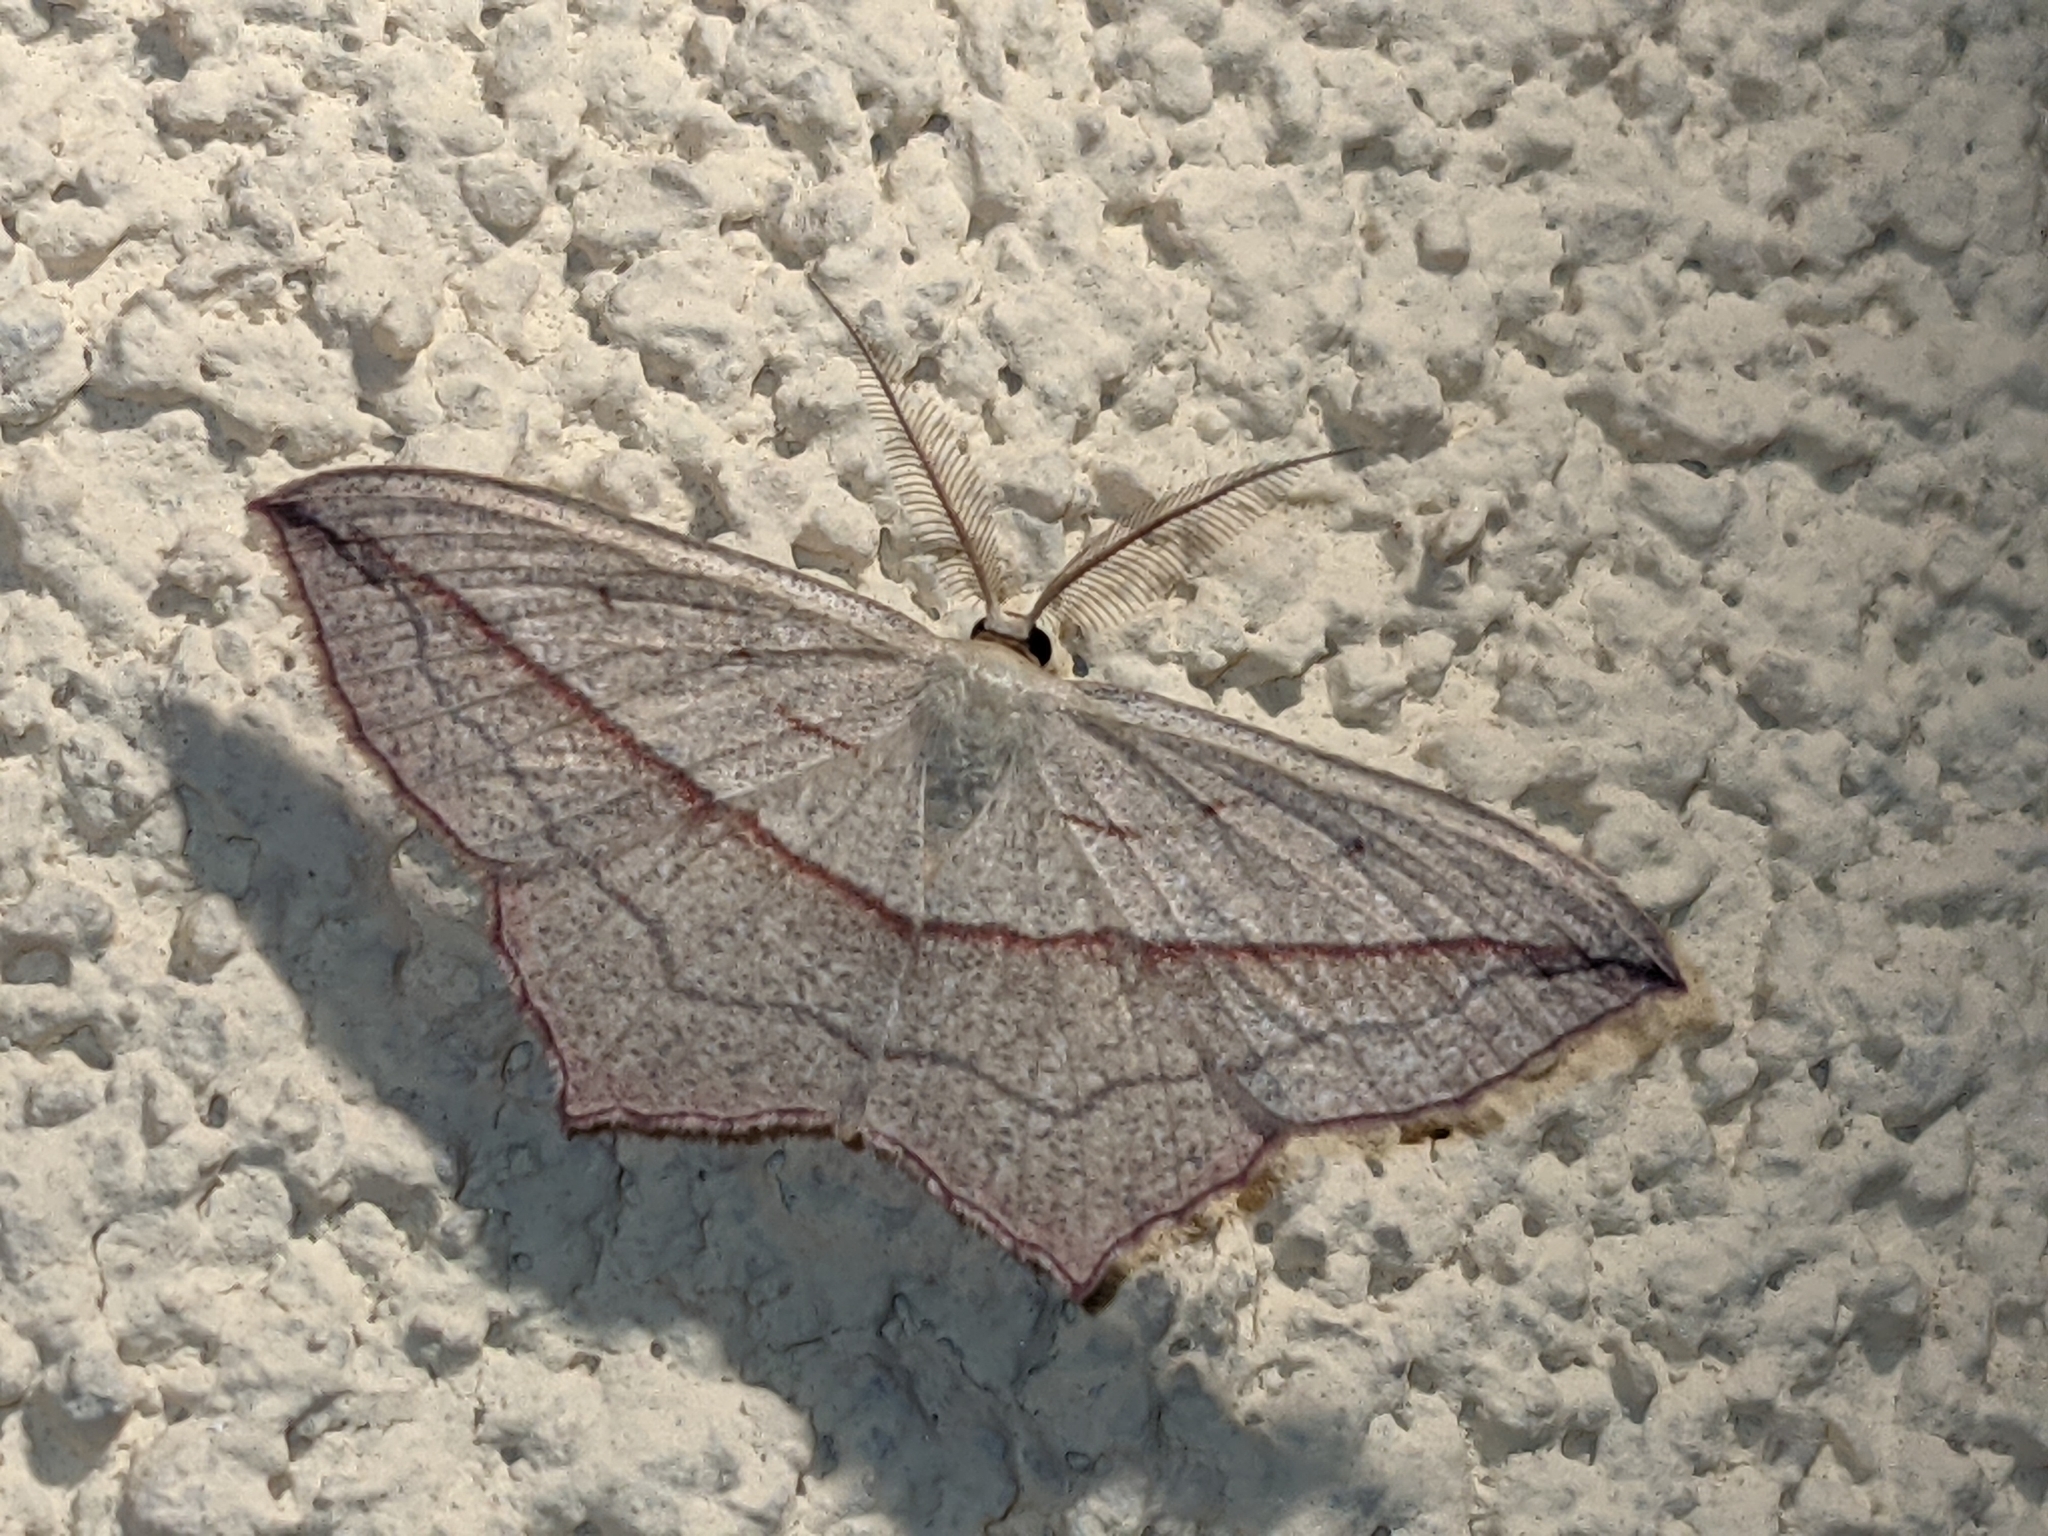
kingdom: Animalia
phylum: Arthropoda
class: Insecta
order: Lepidoptera
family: Geometridae
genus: Timandra
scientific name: Timandra comae
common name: Blood-vein
